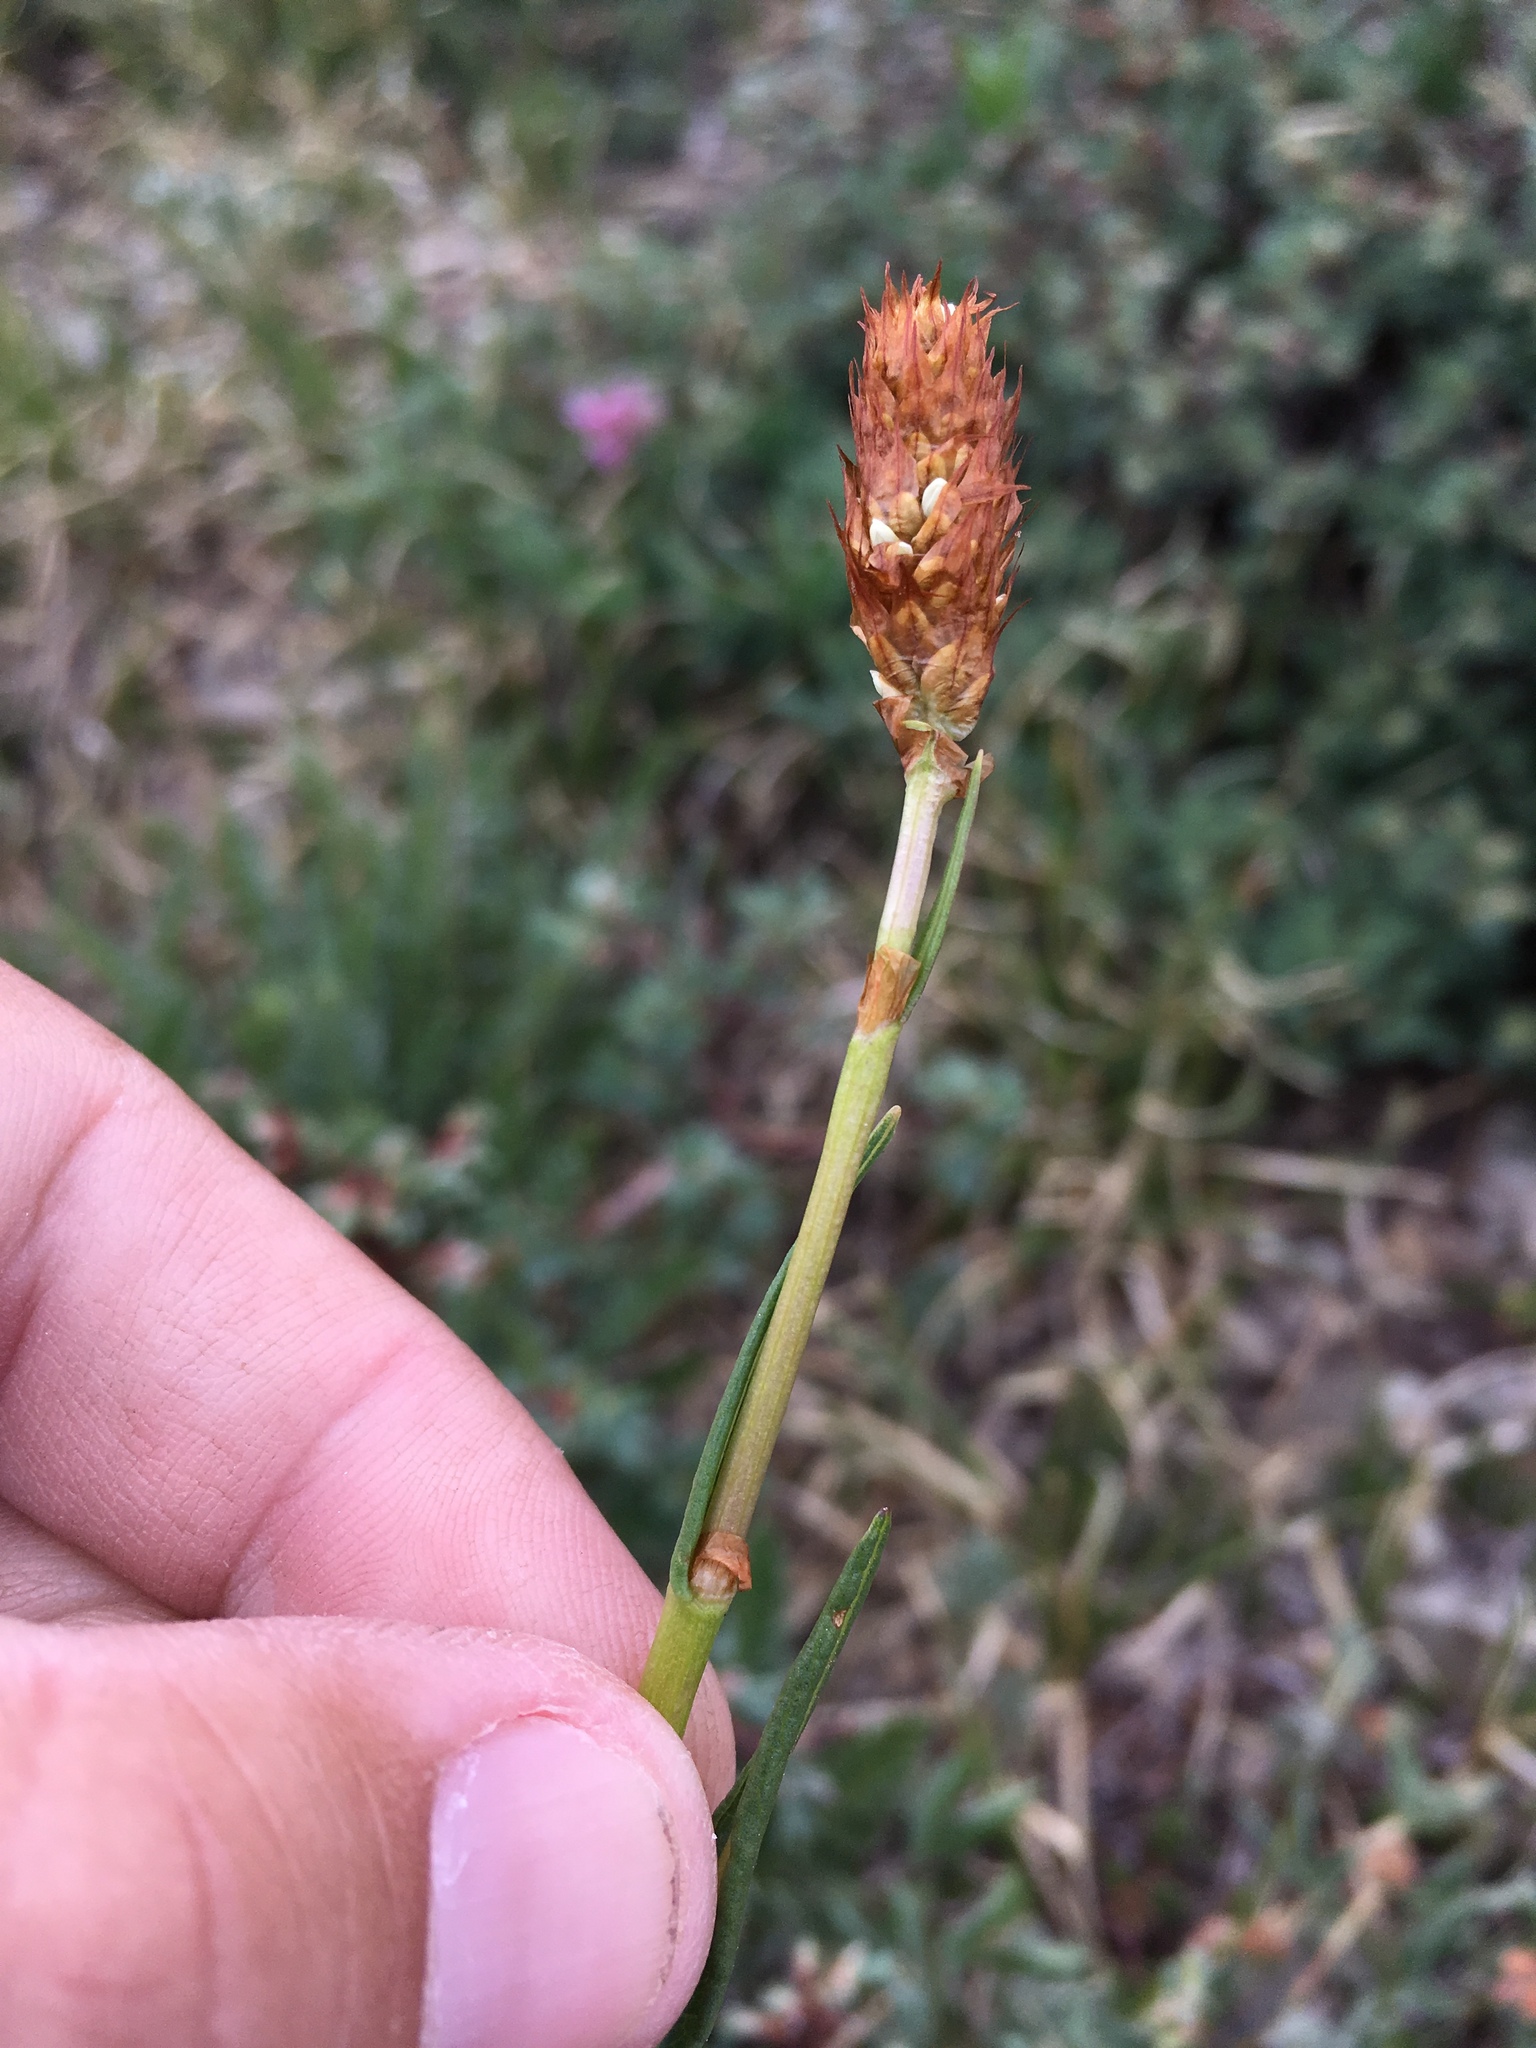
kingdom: Plantae
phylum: Tracheophyta
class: Magnoliopsida
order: Caryophyllales
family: Polygonaceae
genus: Bistorta
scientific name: Bistorta bistortoides
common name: American bistort
